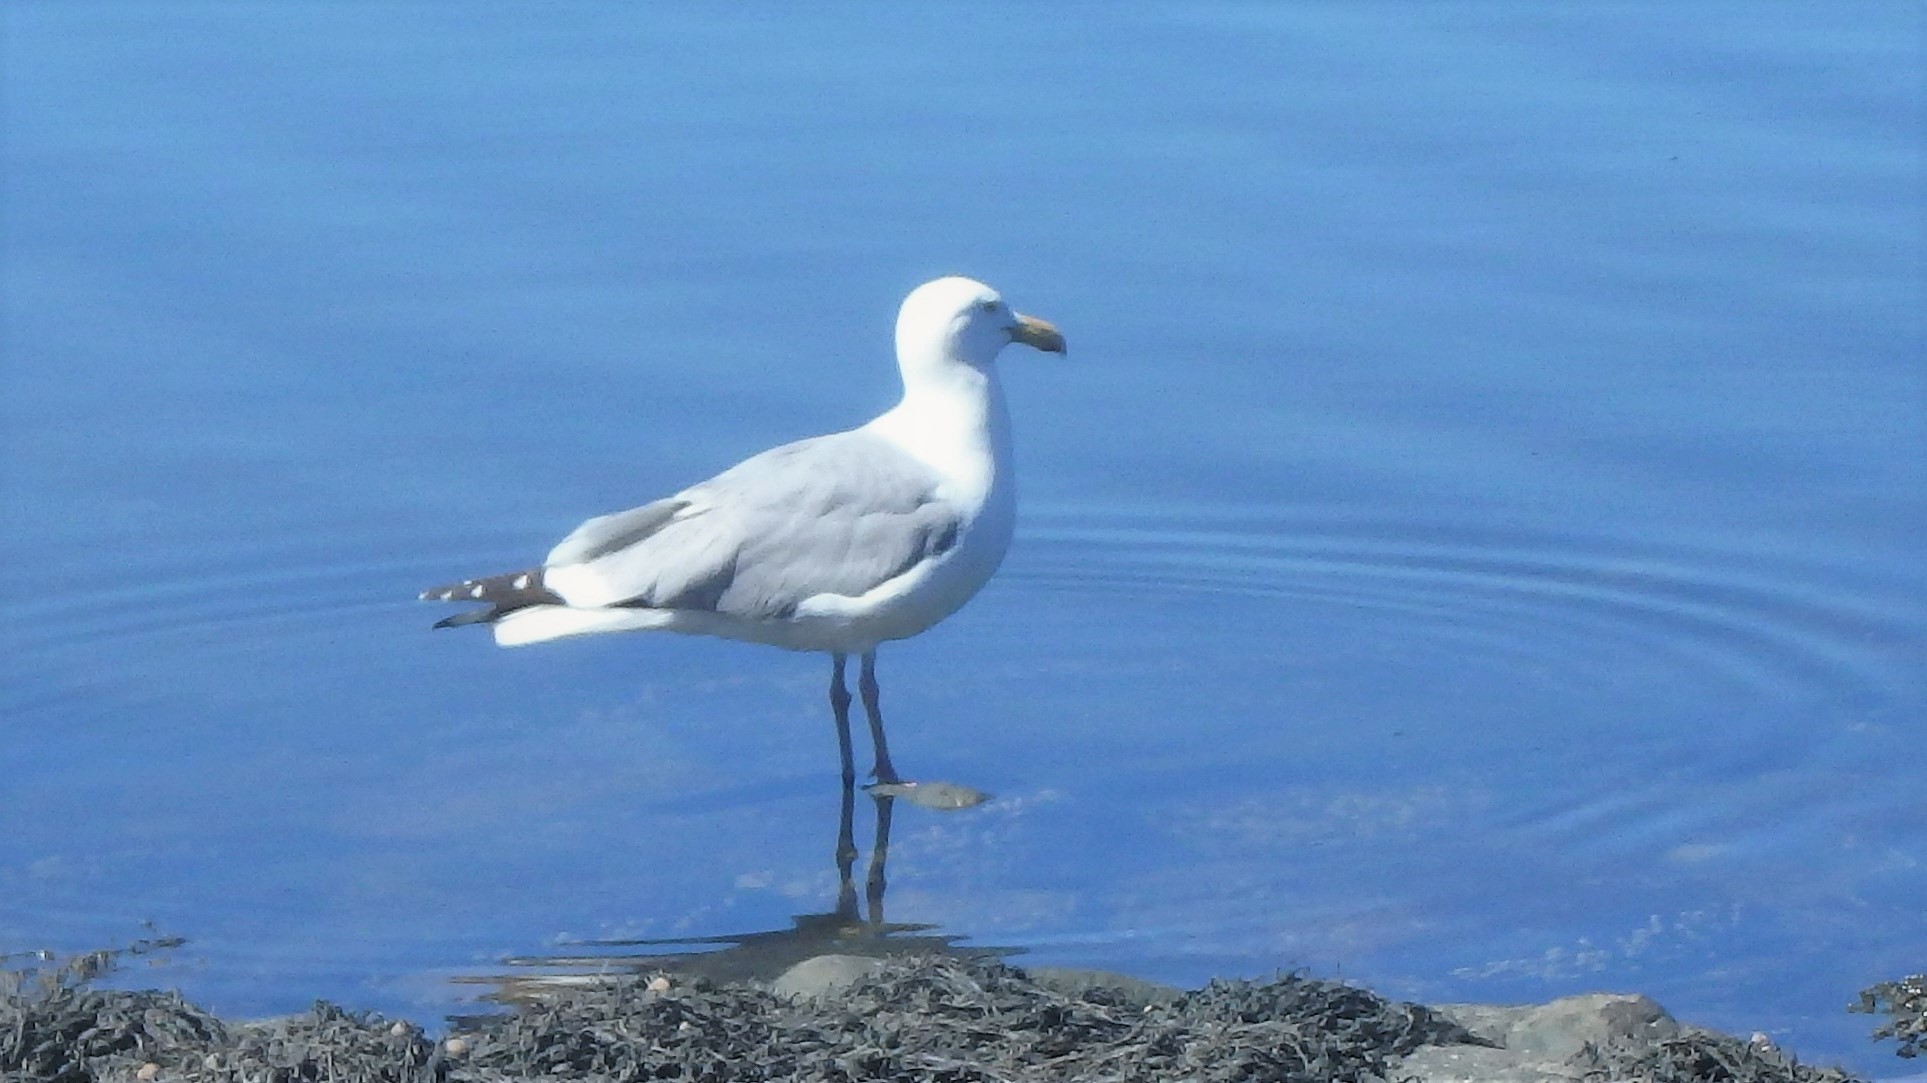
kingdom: Animalia
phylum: Chordata
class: Aves
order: Charadriiformes
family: Laridae
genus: Larus
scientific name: Larus argentatus
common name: Herring gull
